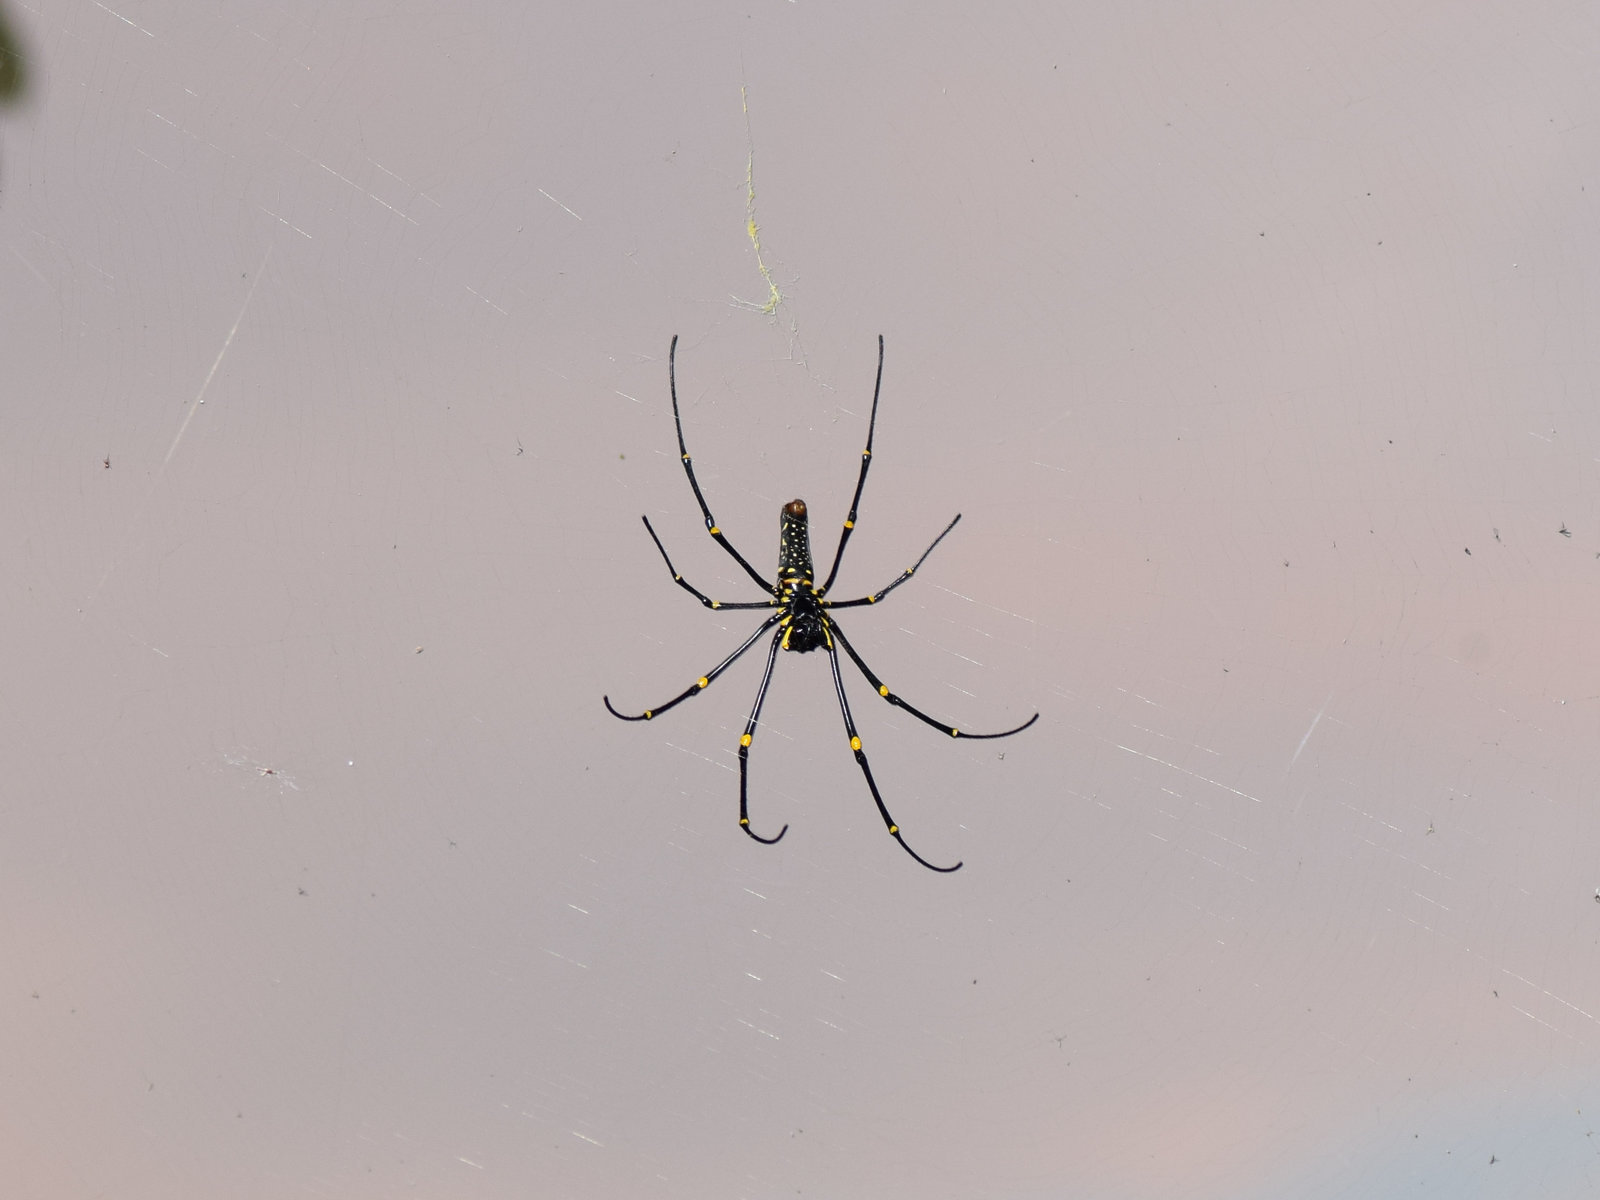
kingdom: Animalia
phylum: Arthropoda
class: Arachnida
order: Araneae
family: Araneidae
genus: Nephila
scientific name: Nephila pilipes
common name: Giant golden orb weaver
